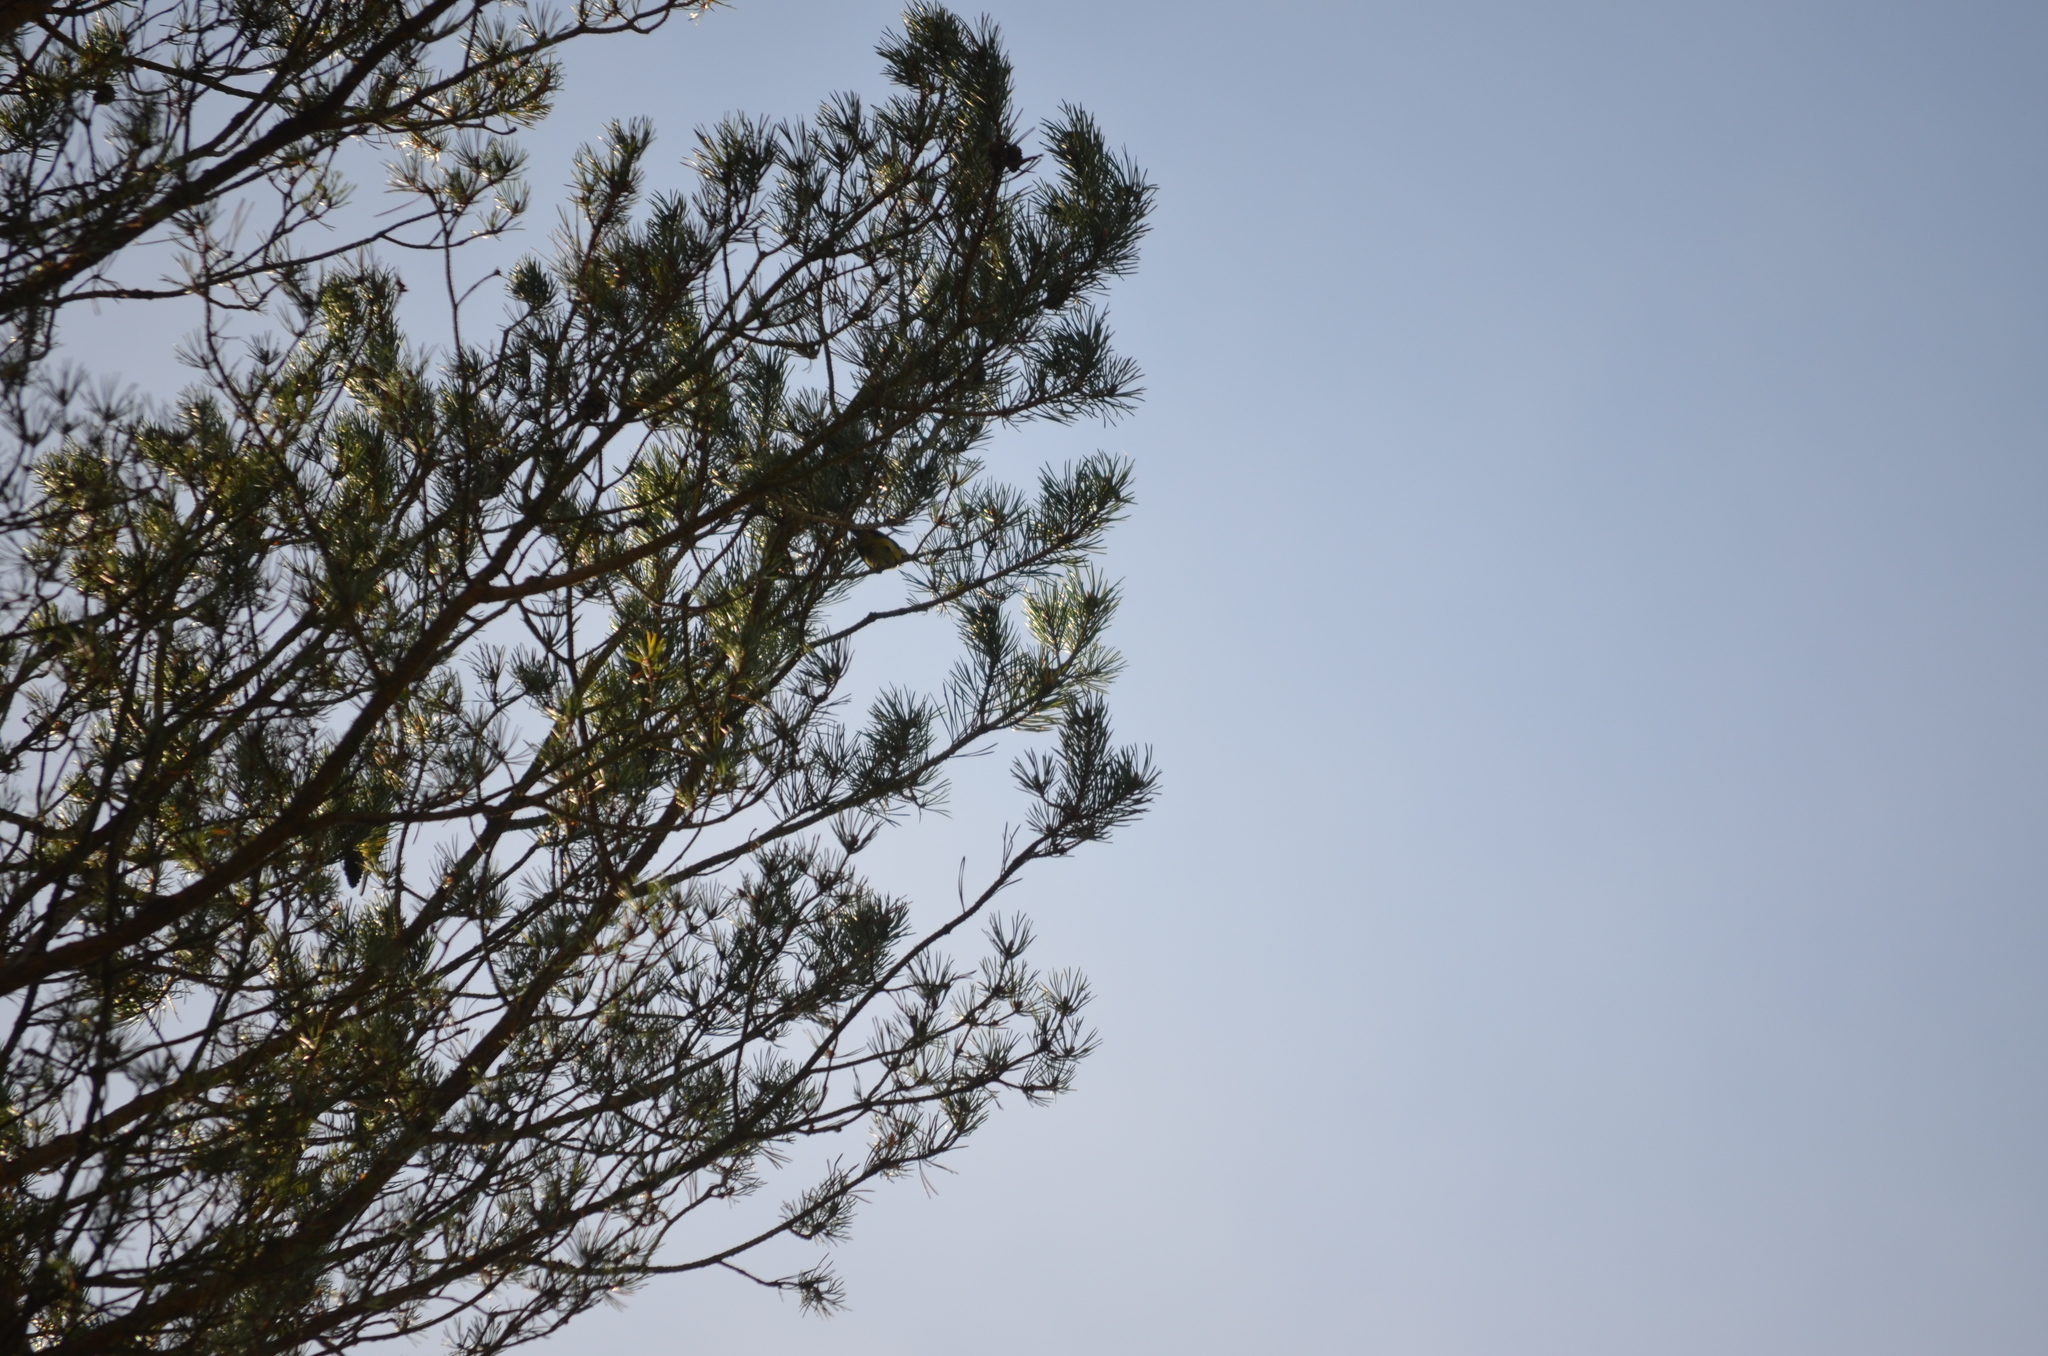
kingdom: Animalia
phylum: Chordata
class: Aves
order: Passeriformes
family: Paridae
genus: Cyanistes
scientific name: Cyanistes caeruleus
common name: Eurasian blue tit
